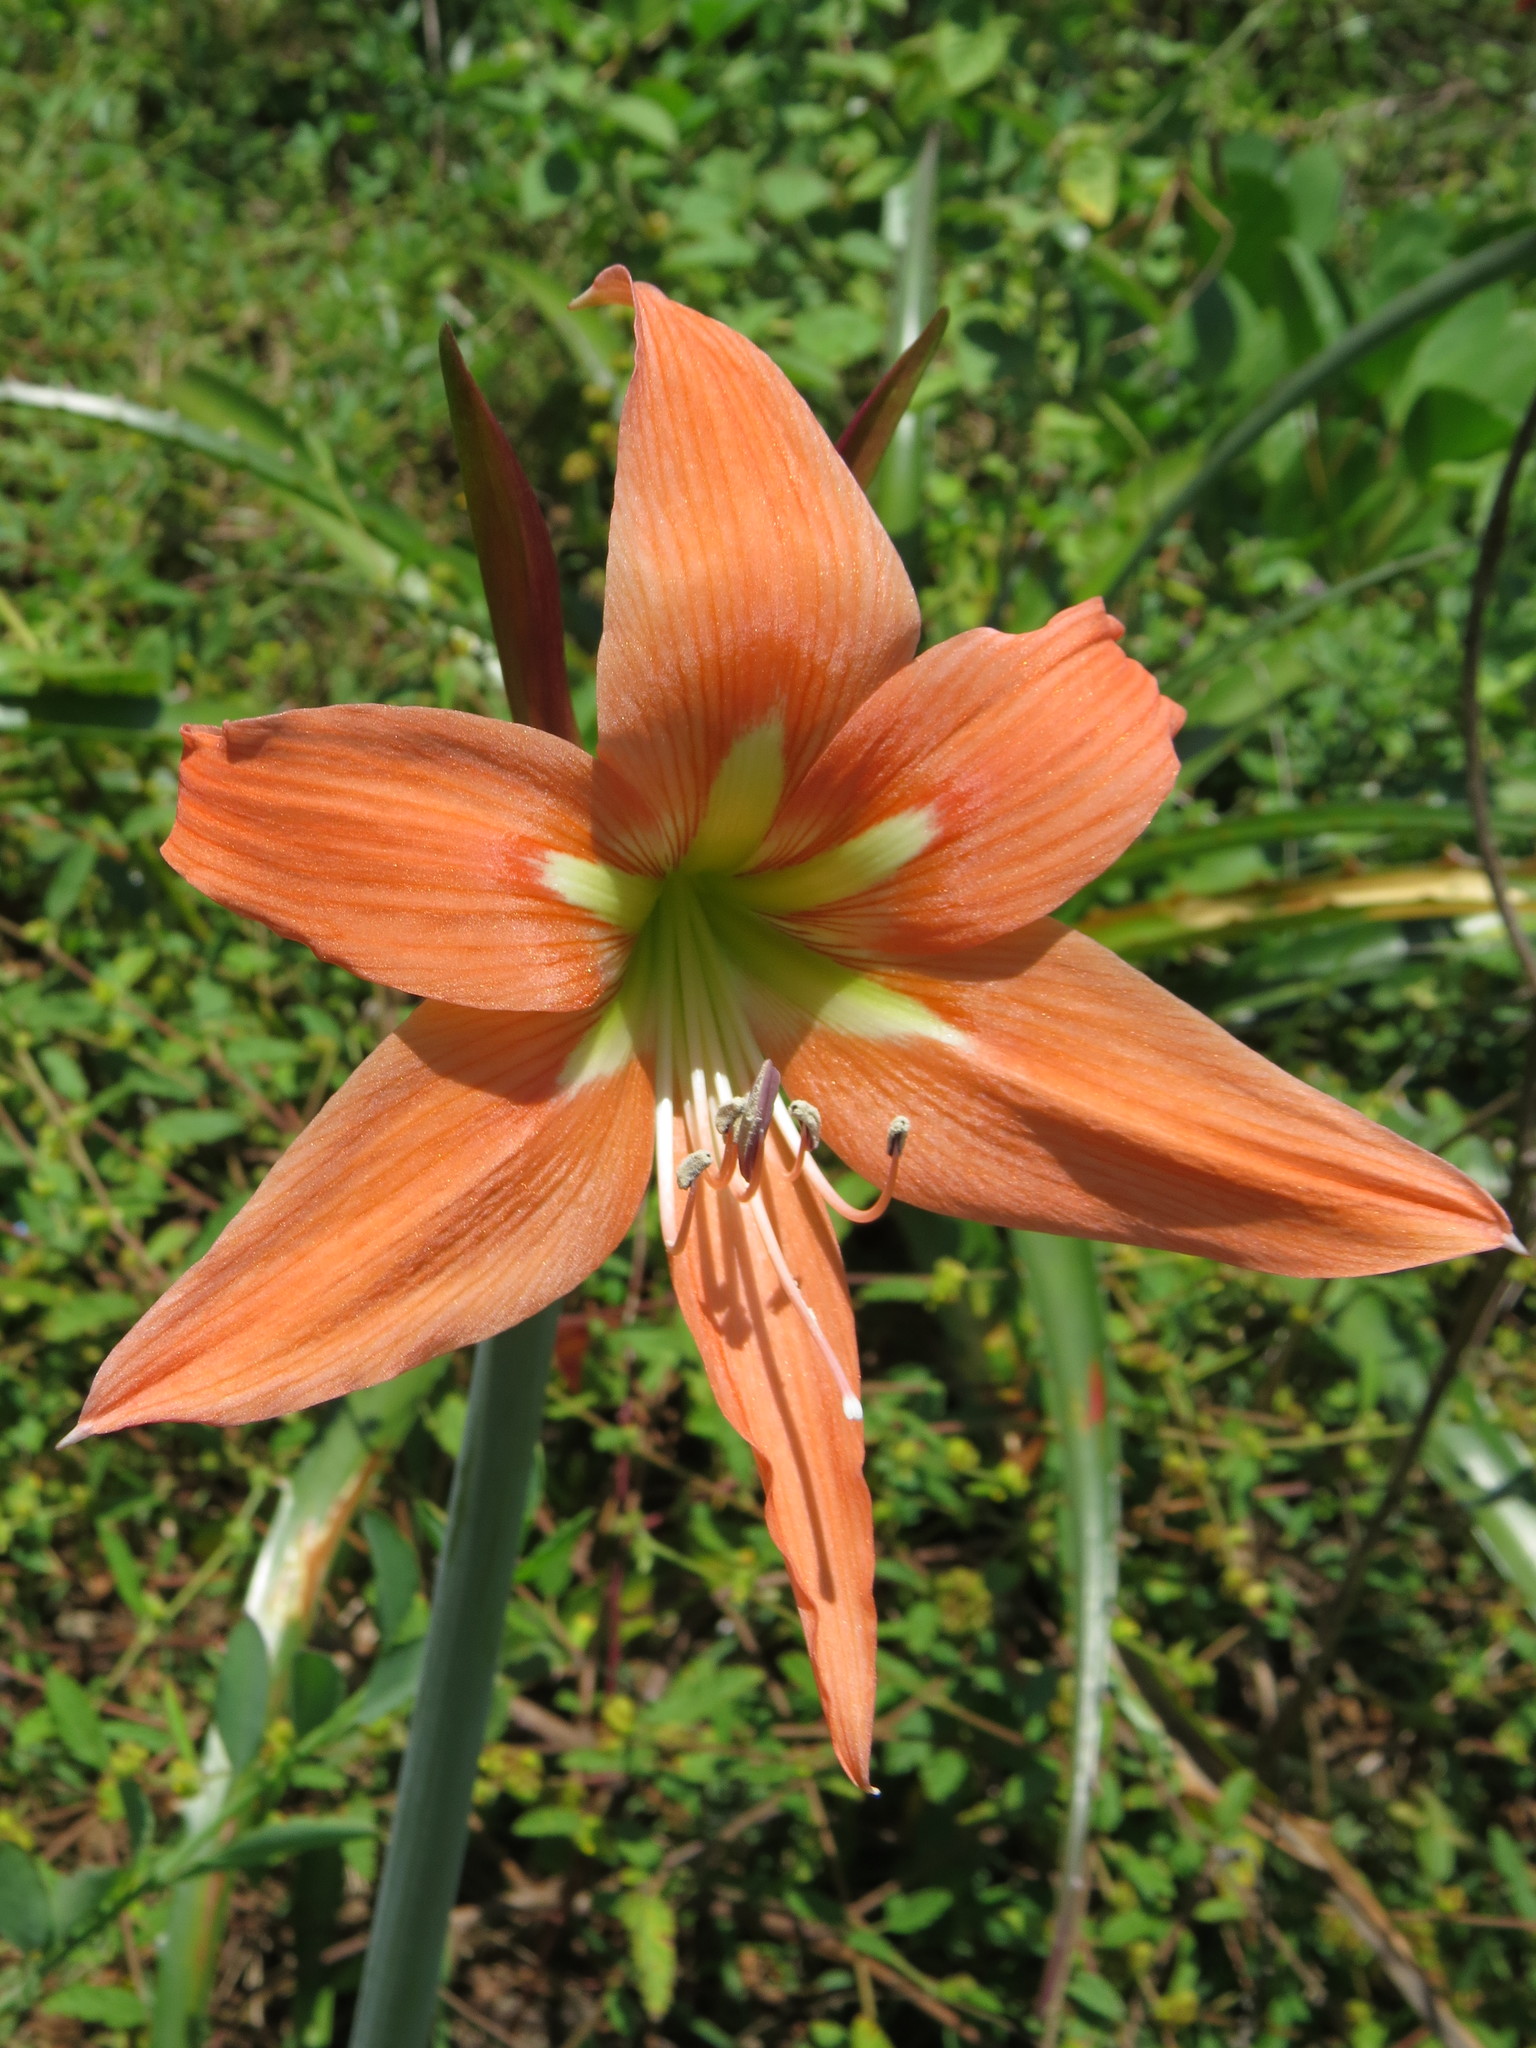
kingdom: Plantae
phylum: Tracheophyta
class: Liliopsida
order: Asparagales
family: Amaryllidaceae
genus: Hippeastrum
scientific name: Hippeastrum striatum
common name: Striped barbados lily
